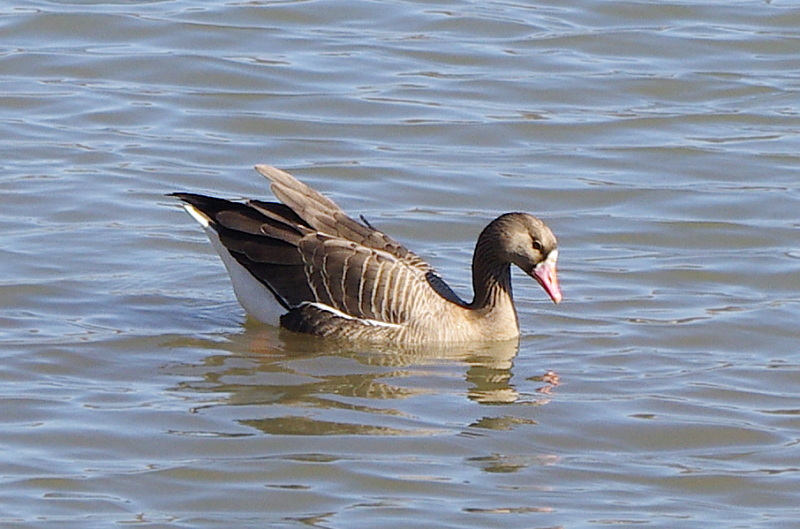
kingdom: Animalia
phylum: Chordata
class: Aves
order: Anseriformes
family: Anatidae
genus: Anser
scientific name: Anser albifrons
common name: Greater white-fronted goose
